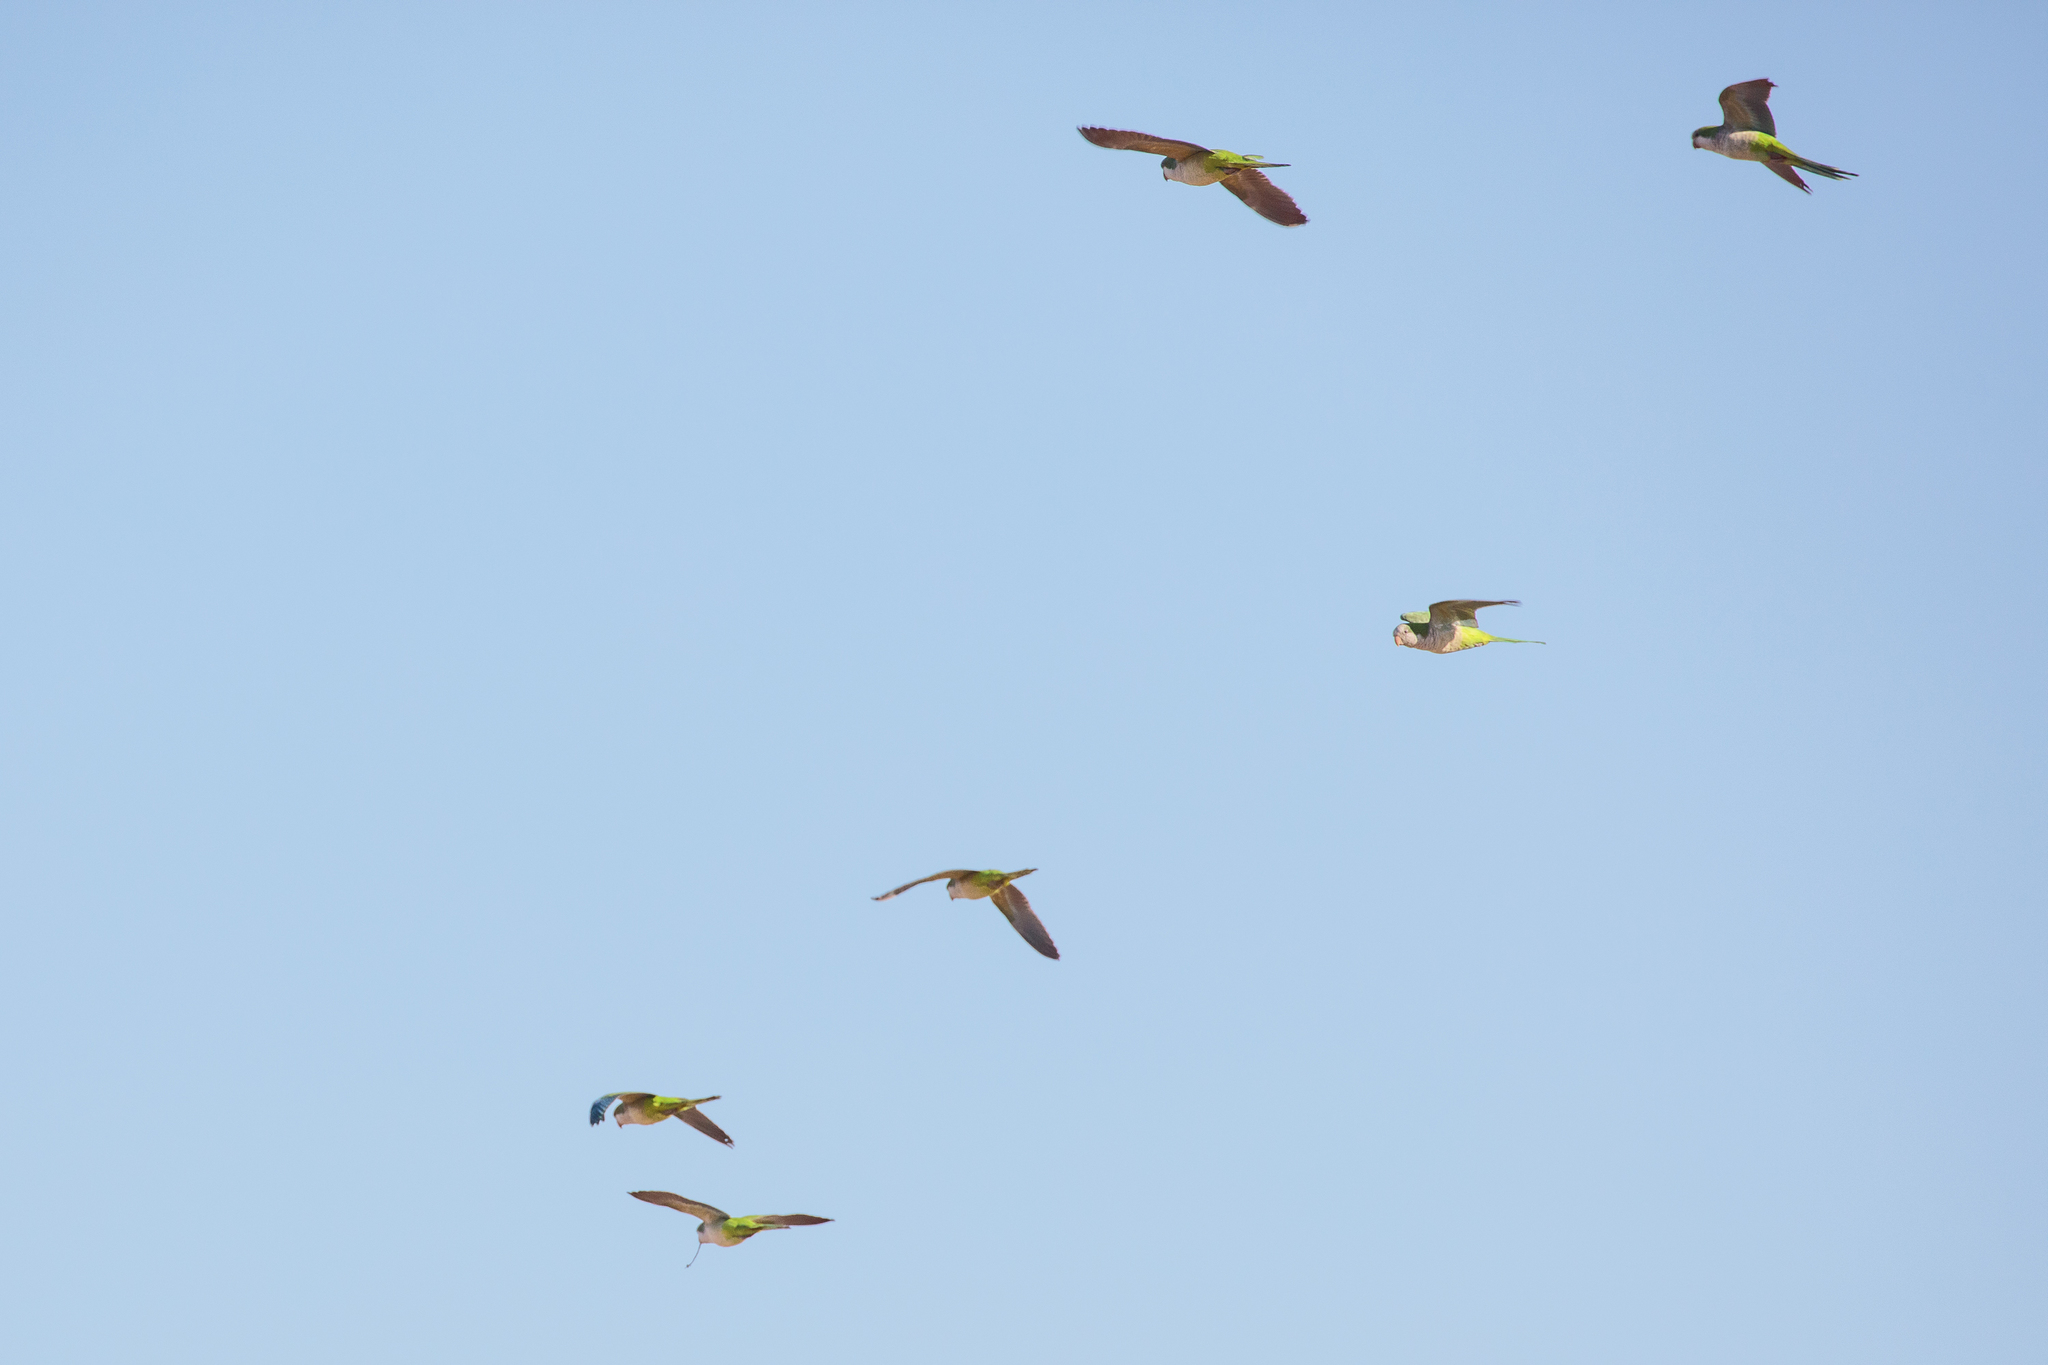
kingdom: Animalia
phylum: Chordata
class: Aves
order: Psittaciformes
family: Psittacidae
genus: Myiopsitta
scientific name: Myiopsitta monachus
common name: Monk parakeet
